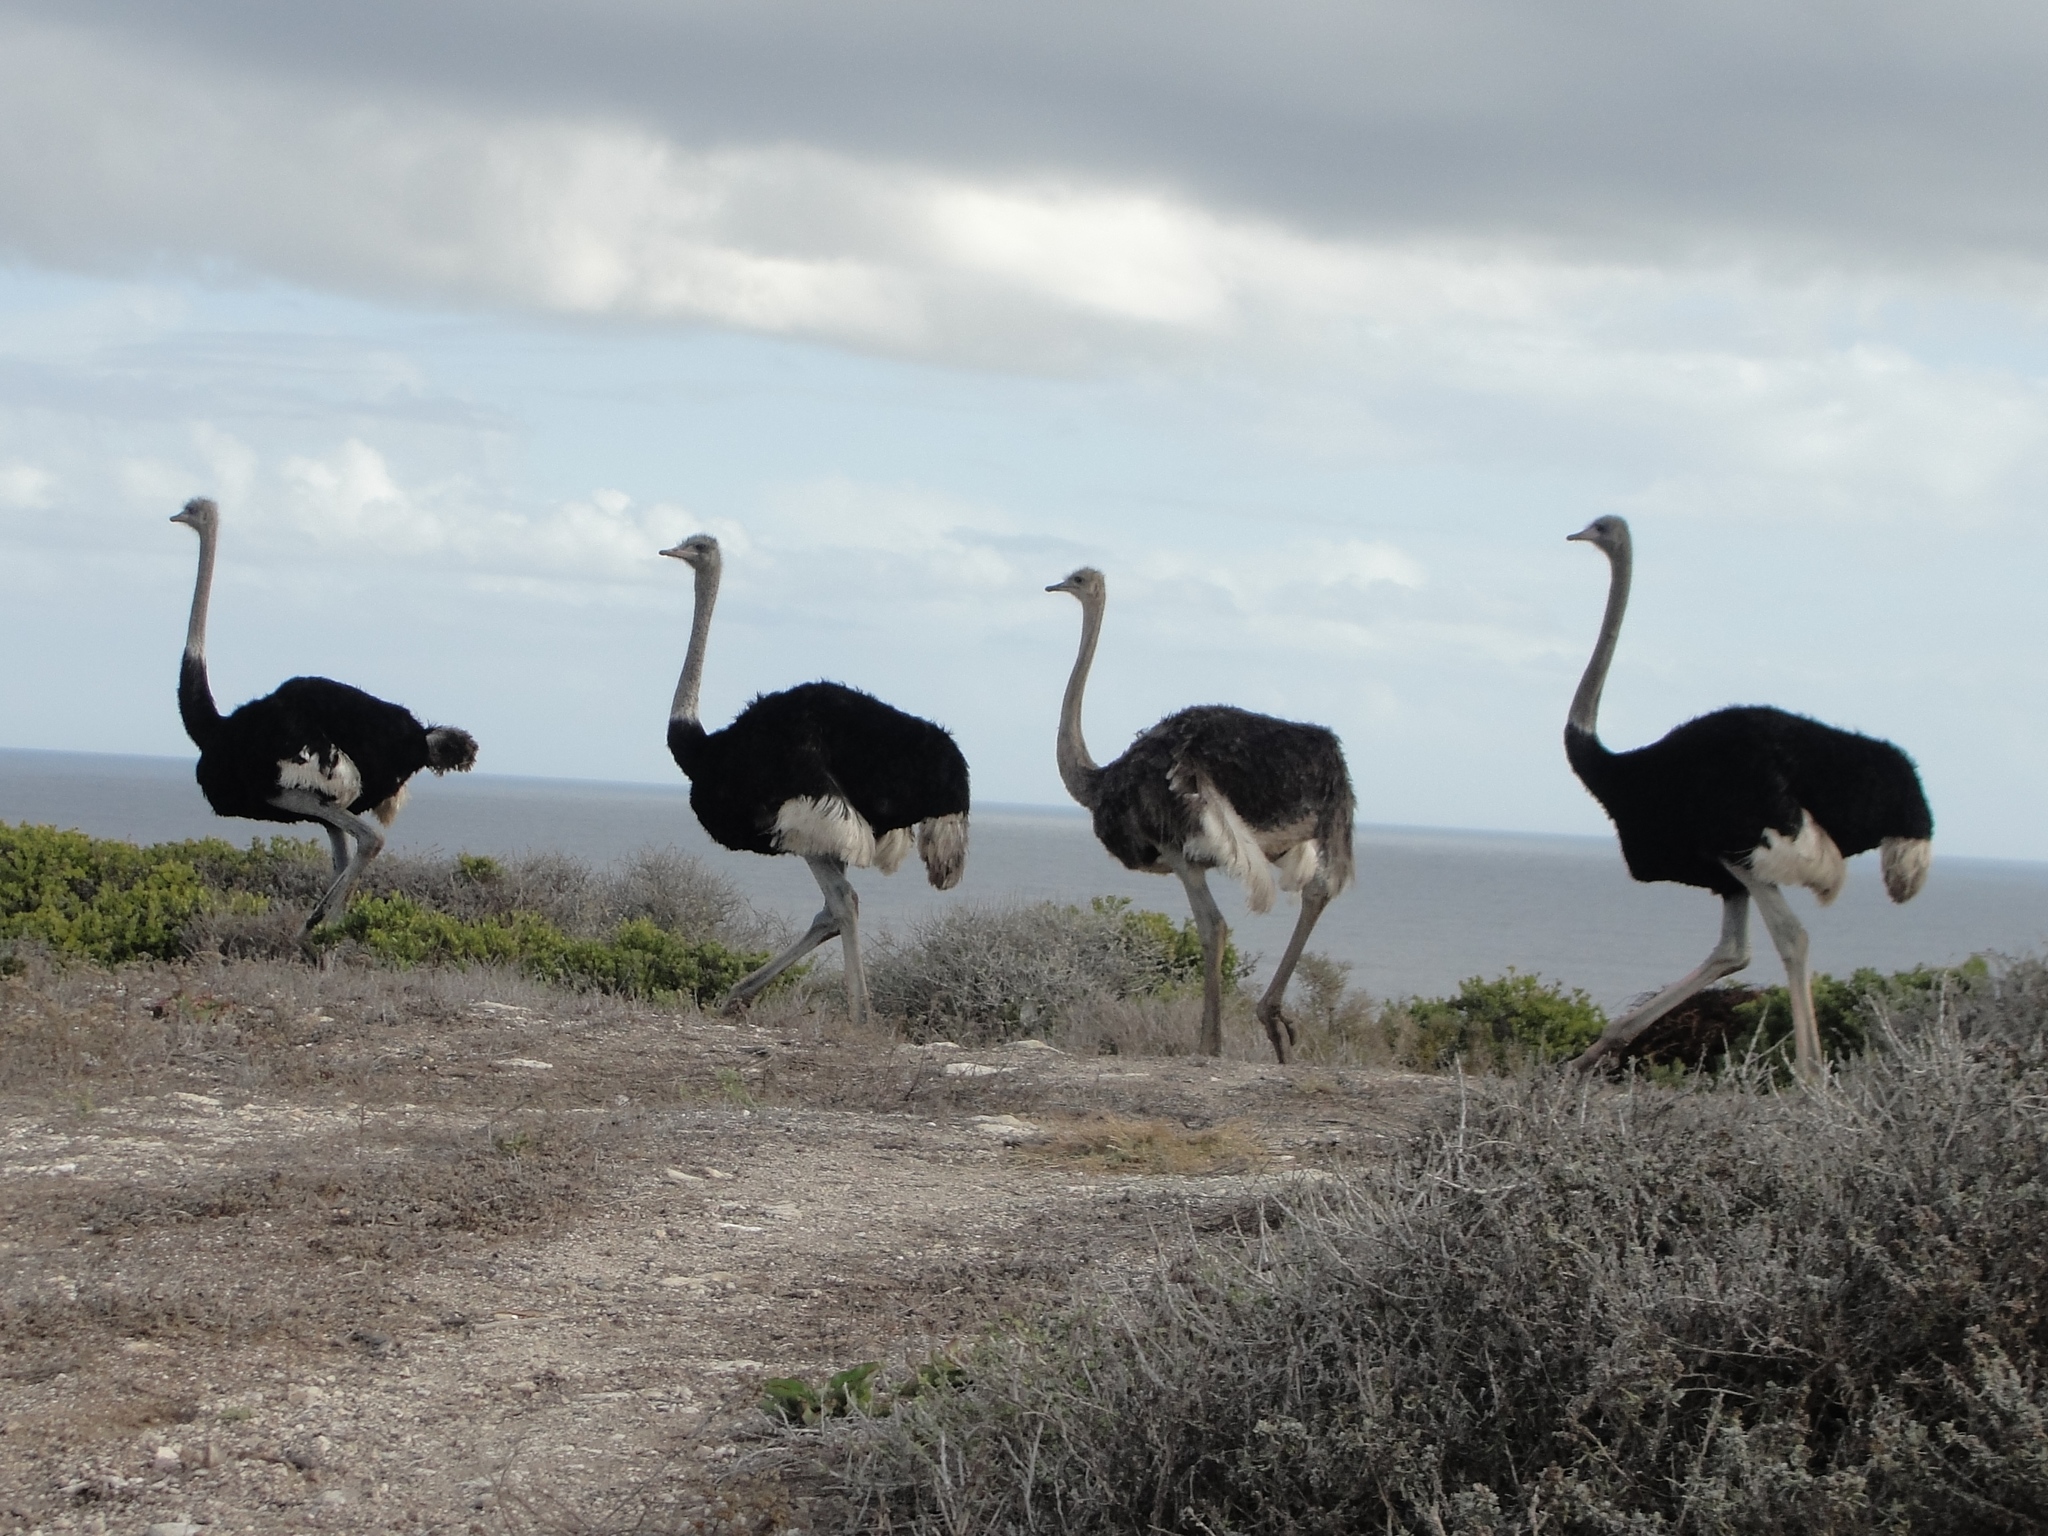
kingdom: Animalia
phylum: Chordata
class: Aves
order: Struthioniformes
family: Struthionidae
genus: Struthio
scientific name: Struthio camelus
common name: Common ostrich
